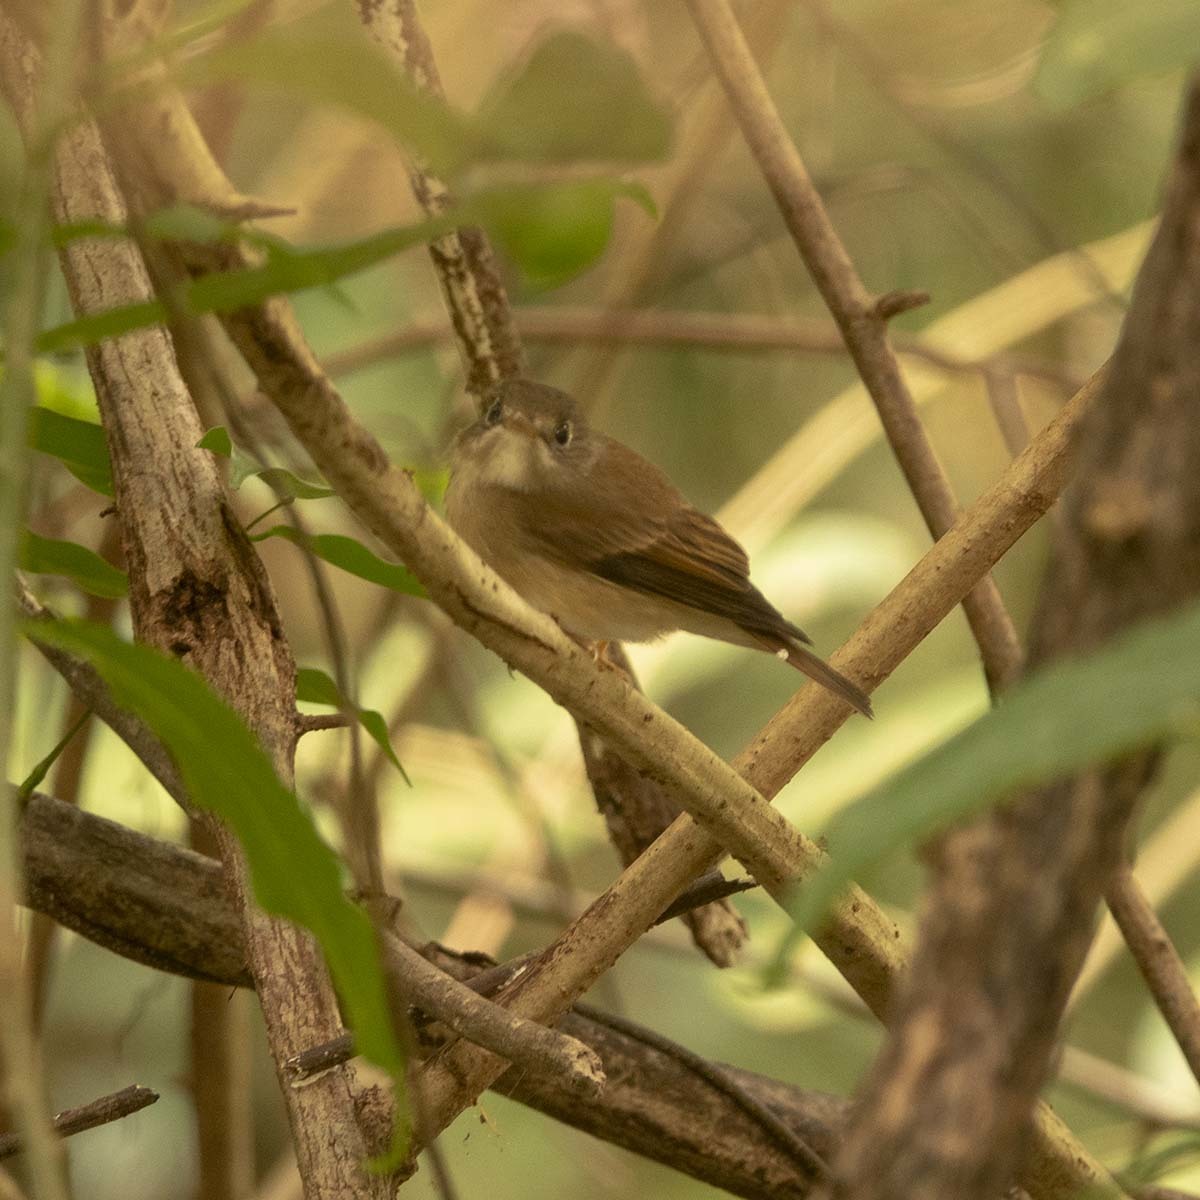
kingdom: Animalia
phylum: Chordata
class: Aves
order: Passeriformes
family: Muscicapidae
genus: Muscicapa
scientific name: Muscicapa muttui
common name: Brown-breasted flycatcher
